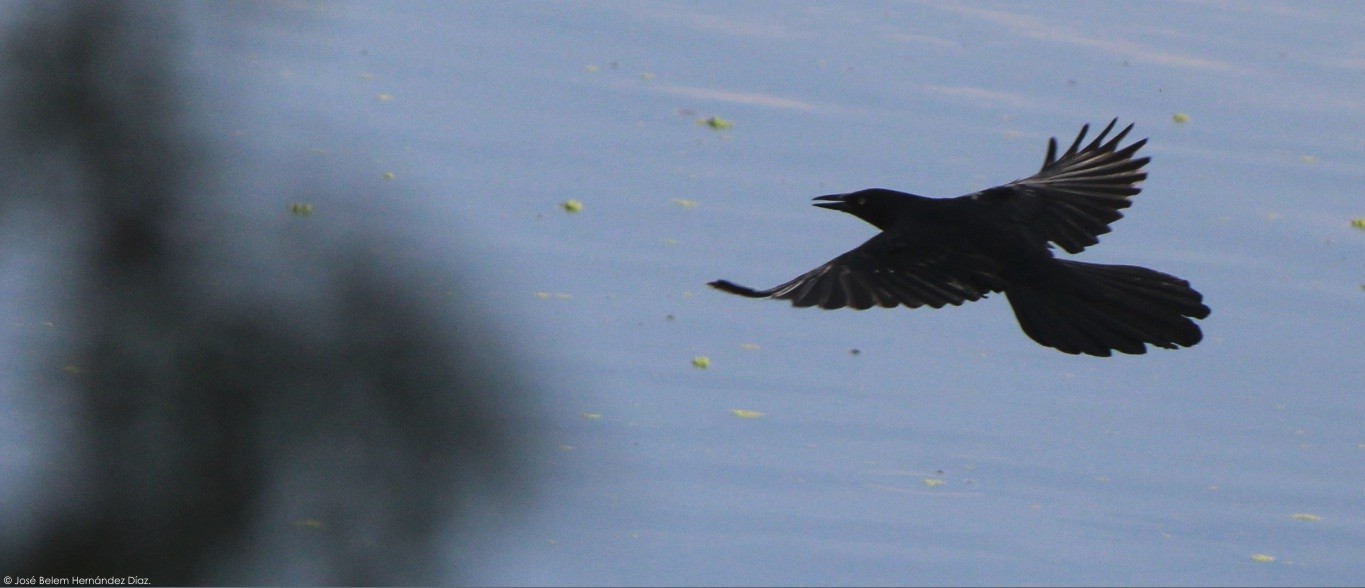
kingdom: Animalia
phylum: Chordata
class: Aves
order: Passeriformes
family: Icteridae
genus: Quiscalus
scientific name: Quiscalus mexicanus
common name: Great-tailed grackle
